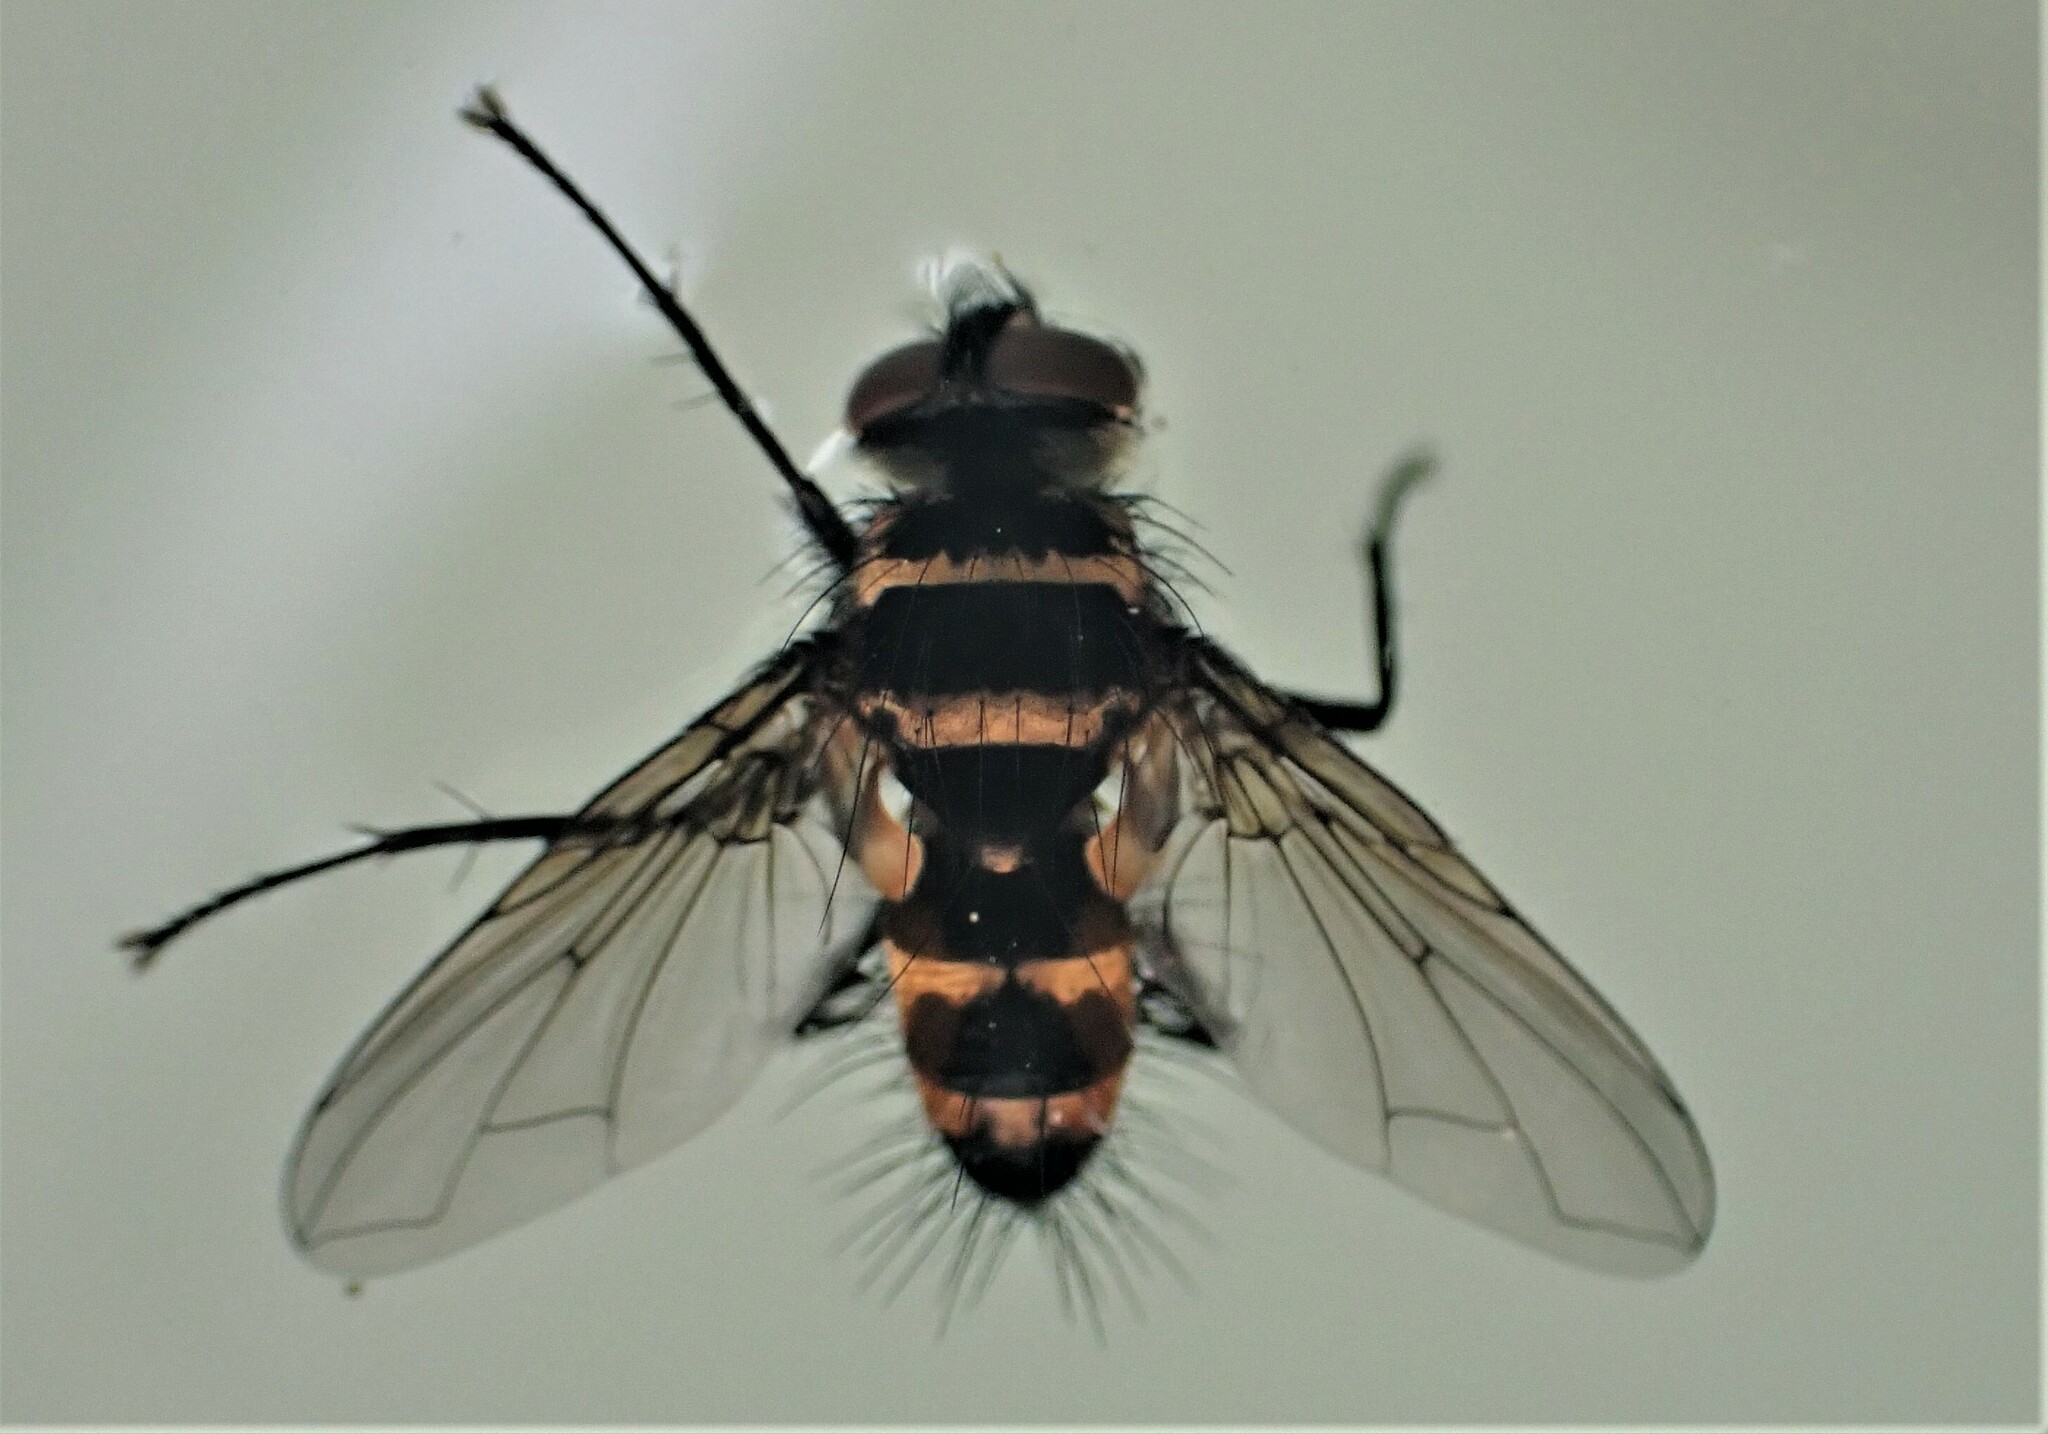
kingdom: Animalia
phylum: Arthropoda
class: Insecta
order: Diptera
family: Tachinidae
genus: Trigonospila
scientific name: Trigonospila brevifacies
